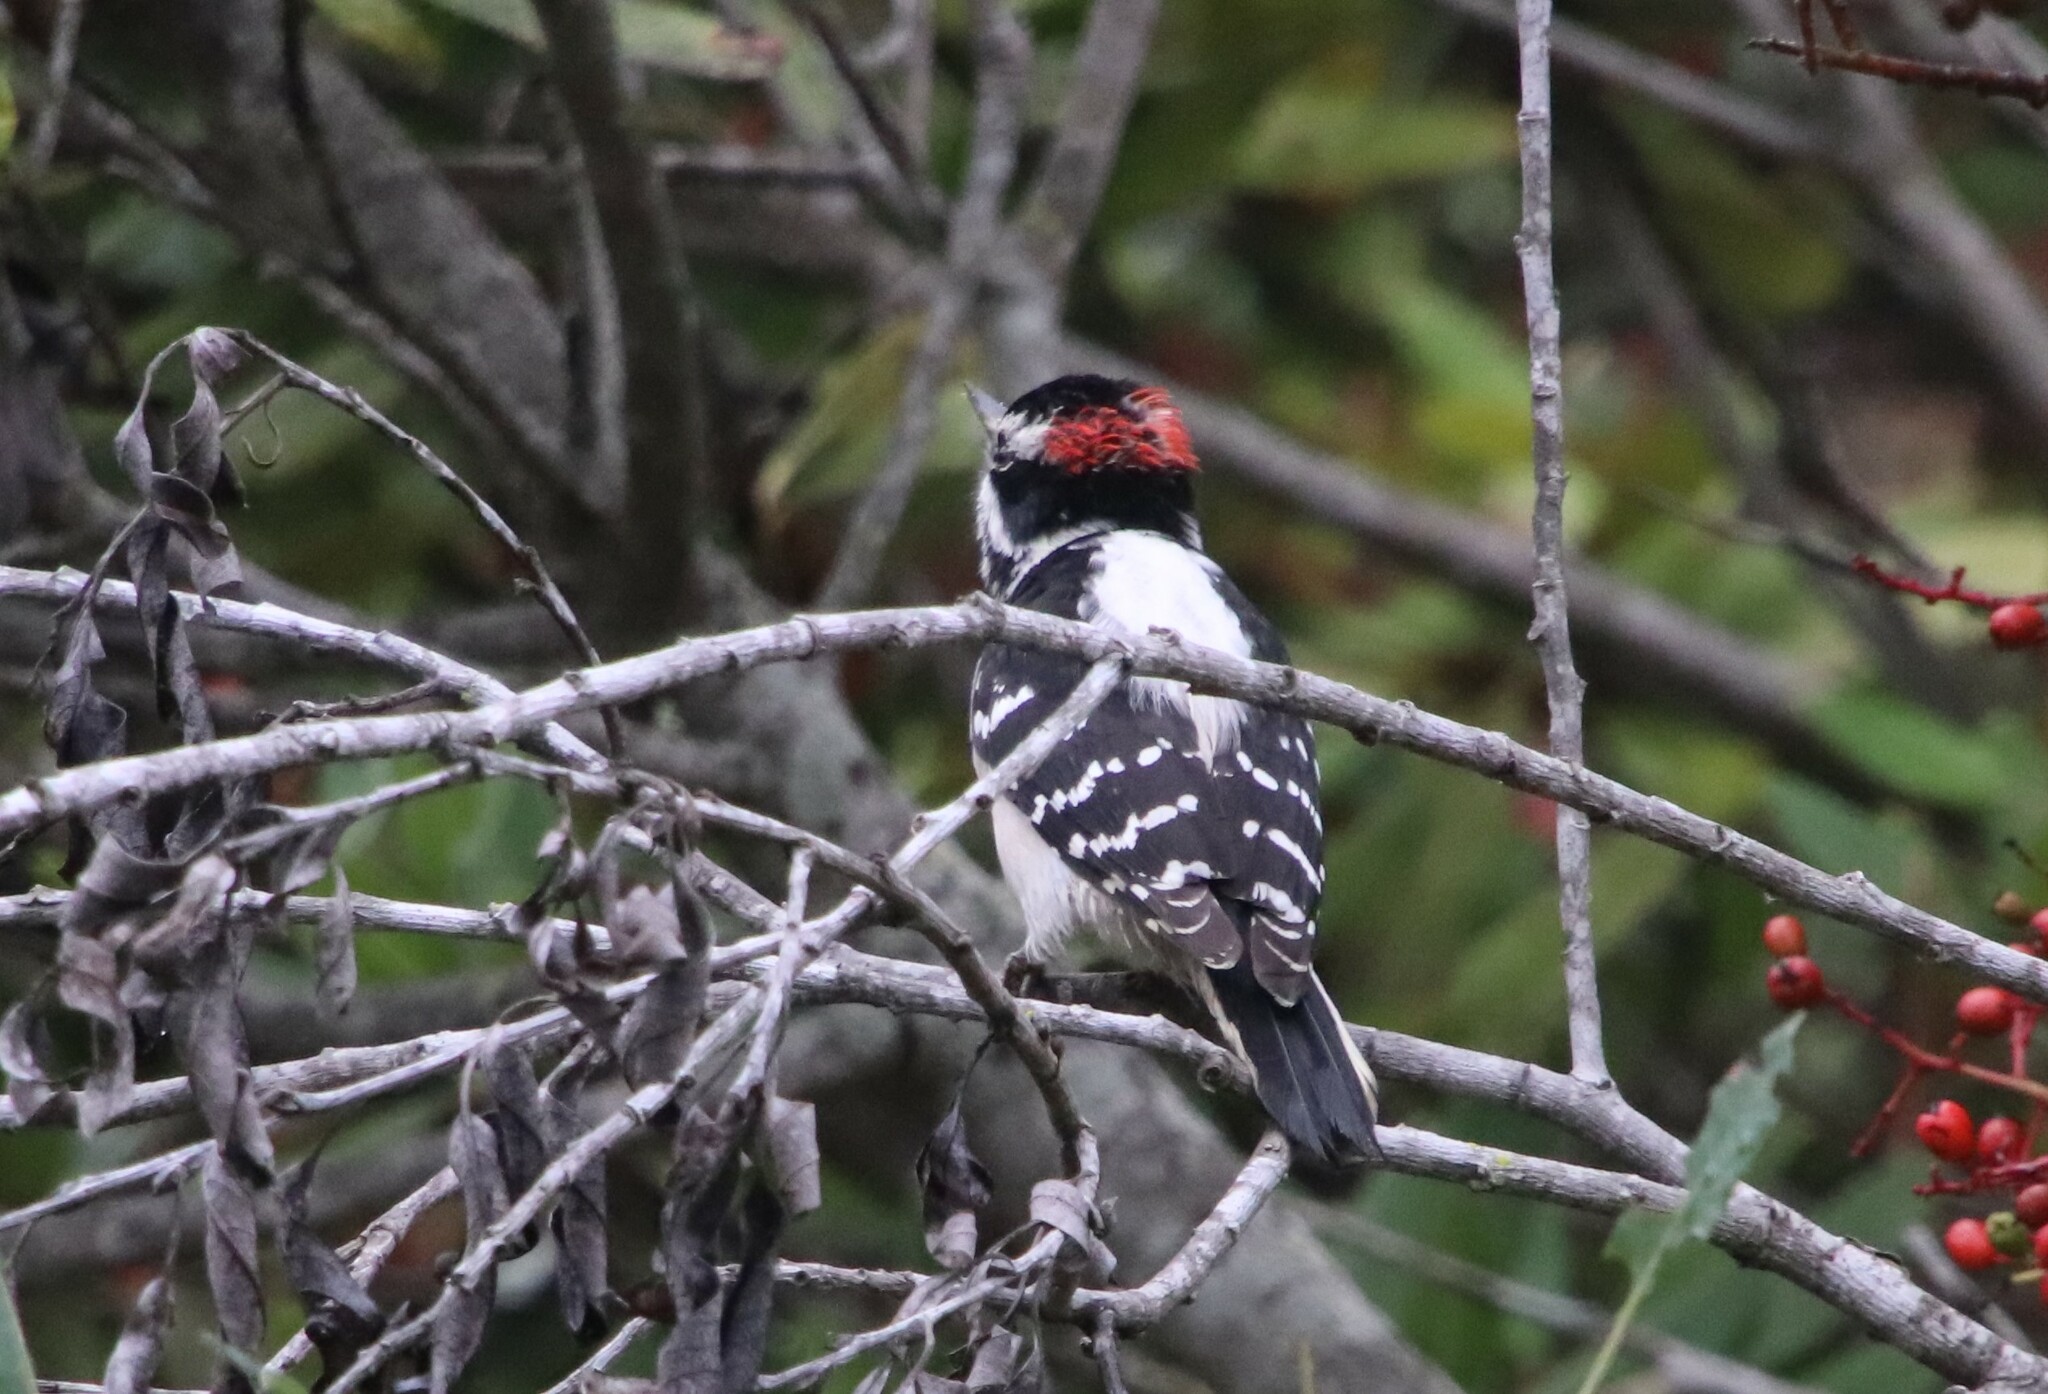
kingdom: Animalia
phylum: Chordata
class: Aves
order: Piciformes
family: Picidae
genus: Dryobates
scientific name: Dryobates pubescens
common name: Downy woodpecker
